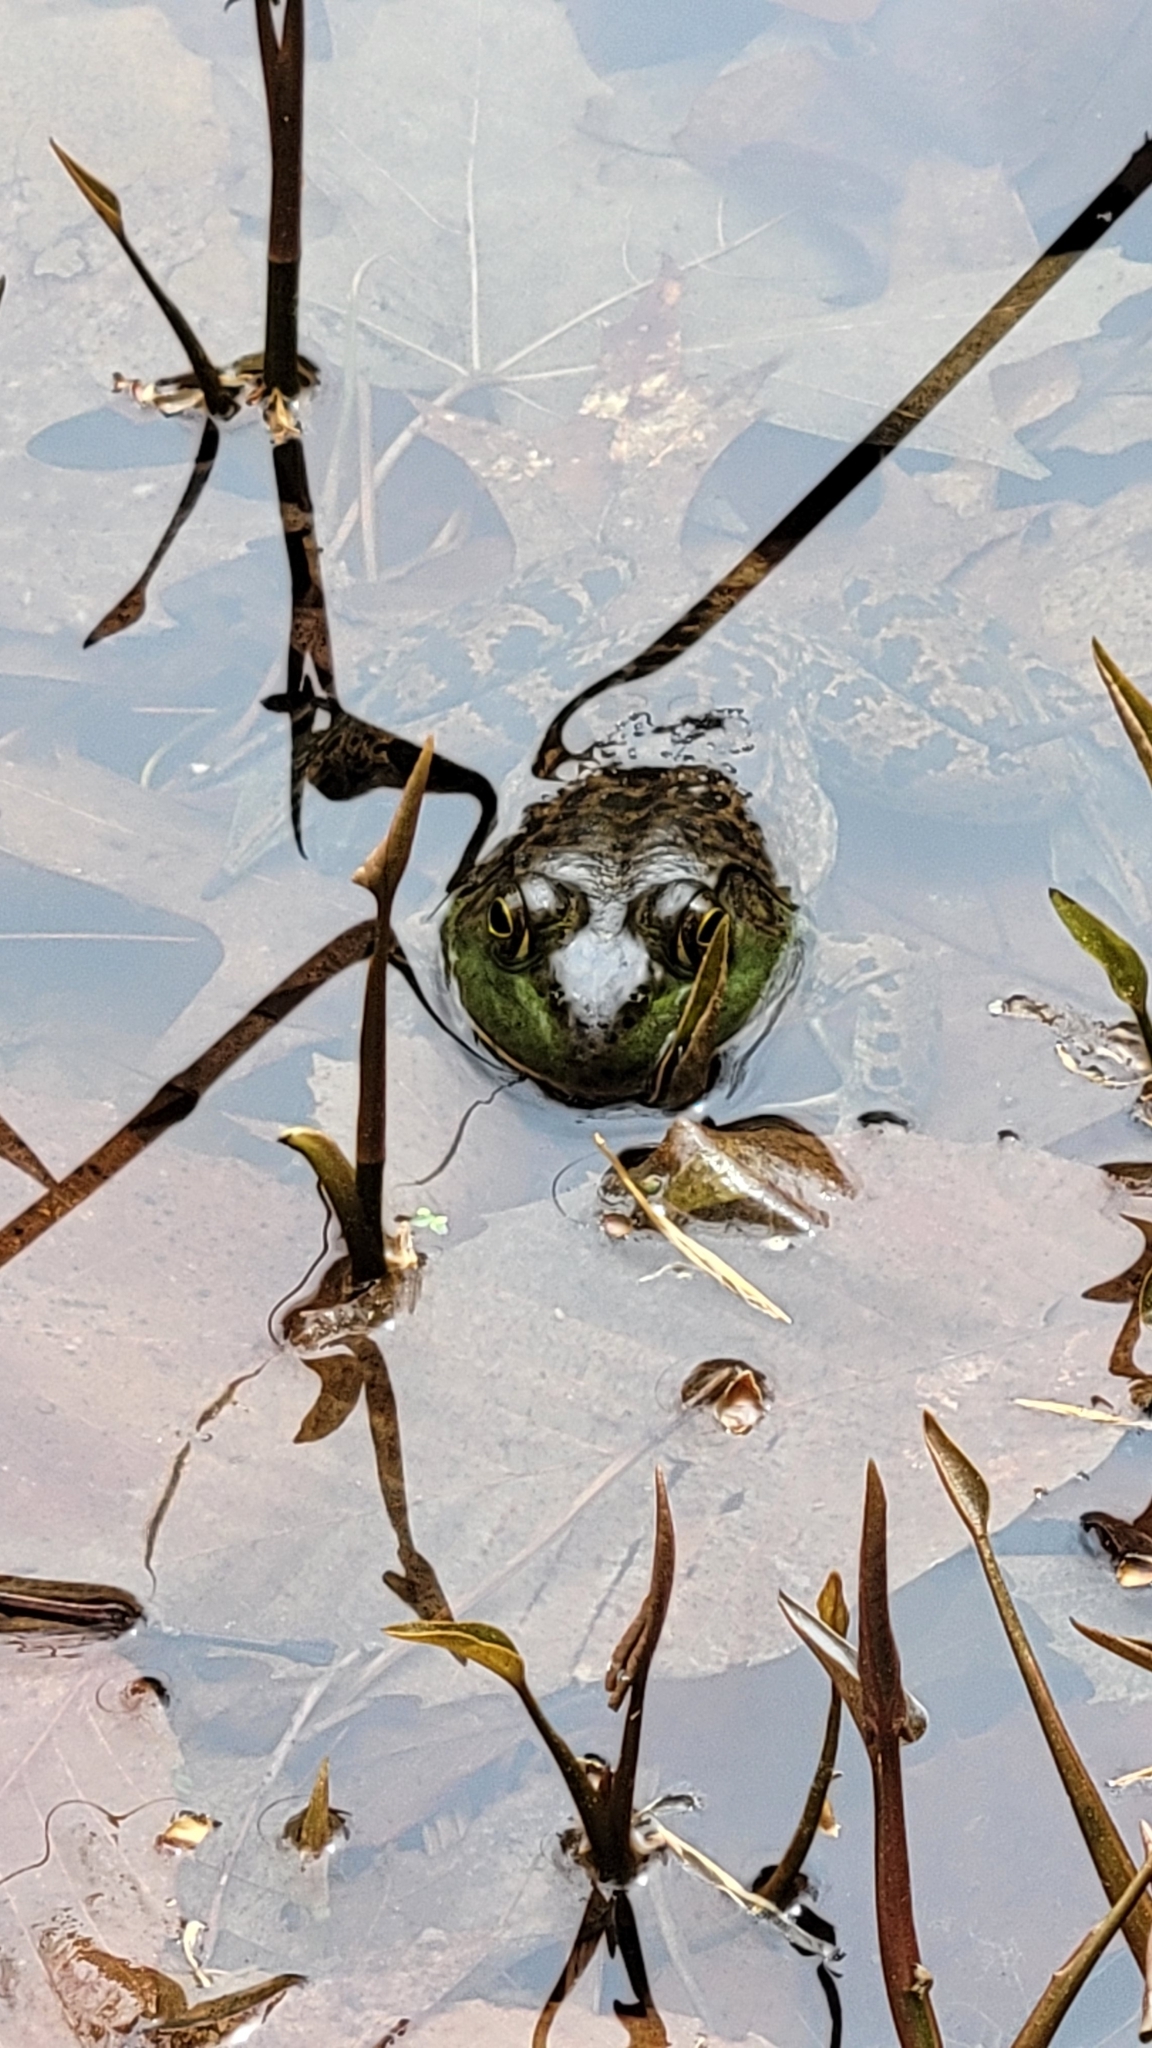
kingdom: Animalia
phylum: Chordata
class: Amphibia
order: Anura
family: Ranidae
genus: Lithobates
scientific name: Lithobates catesbeianus
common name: American bullfrog
